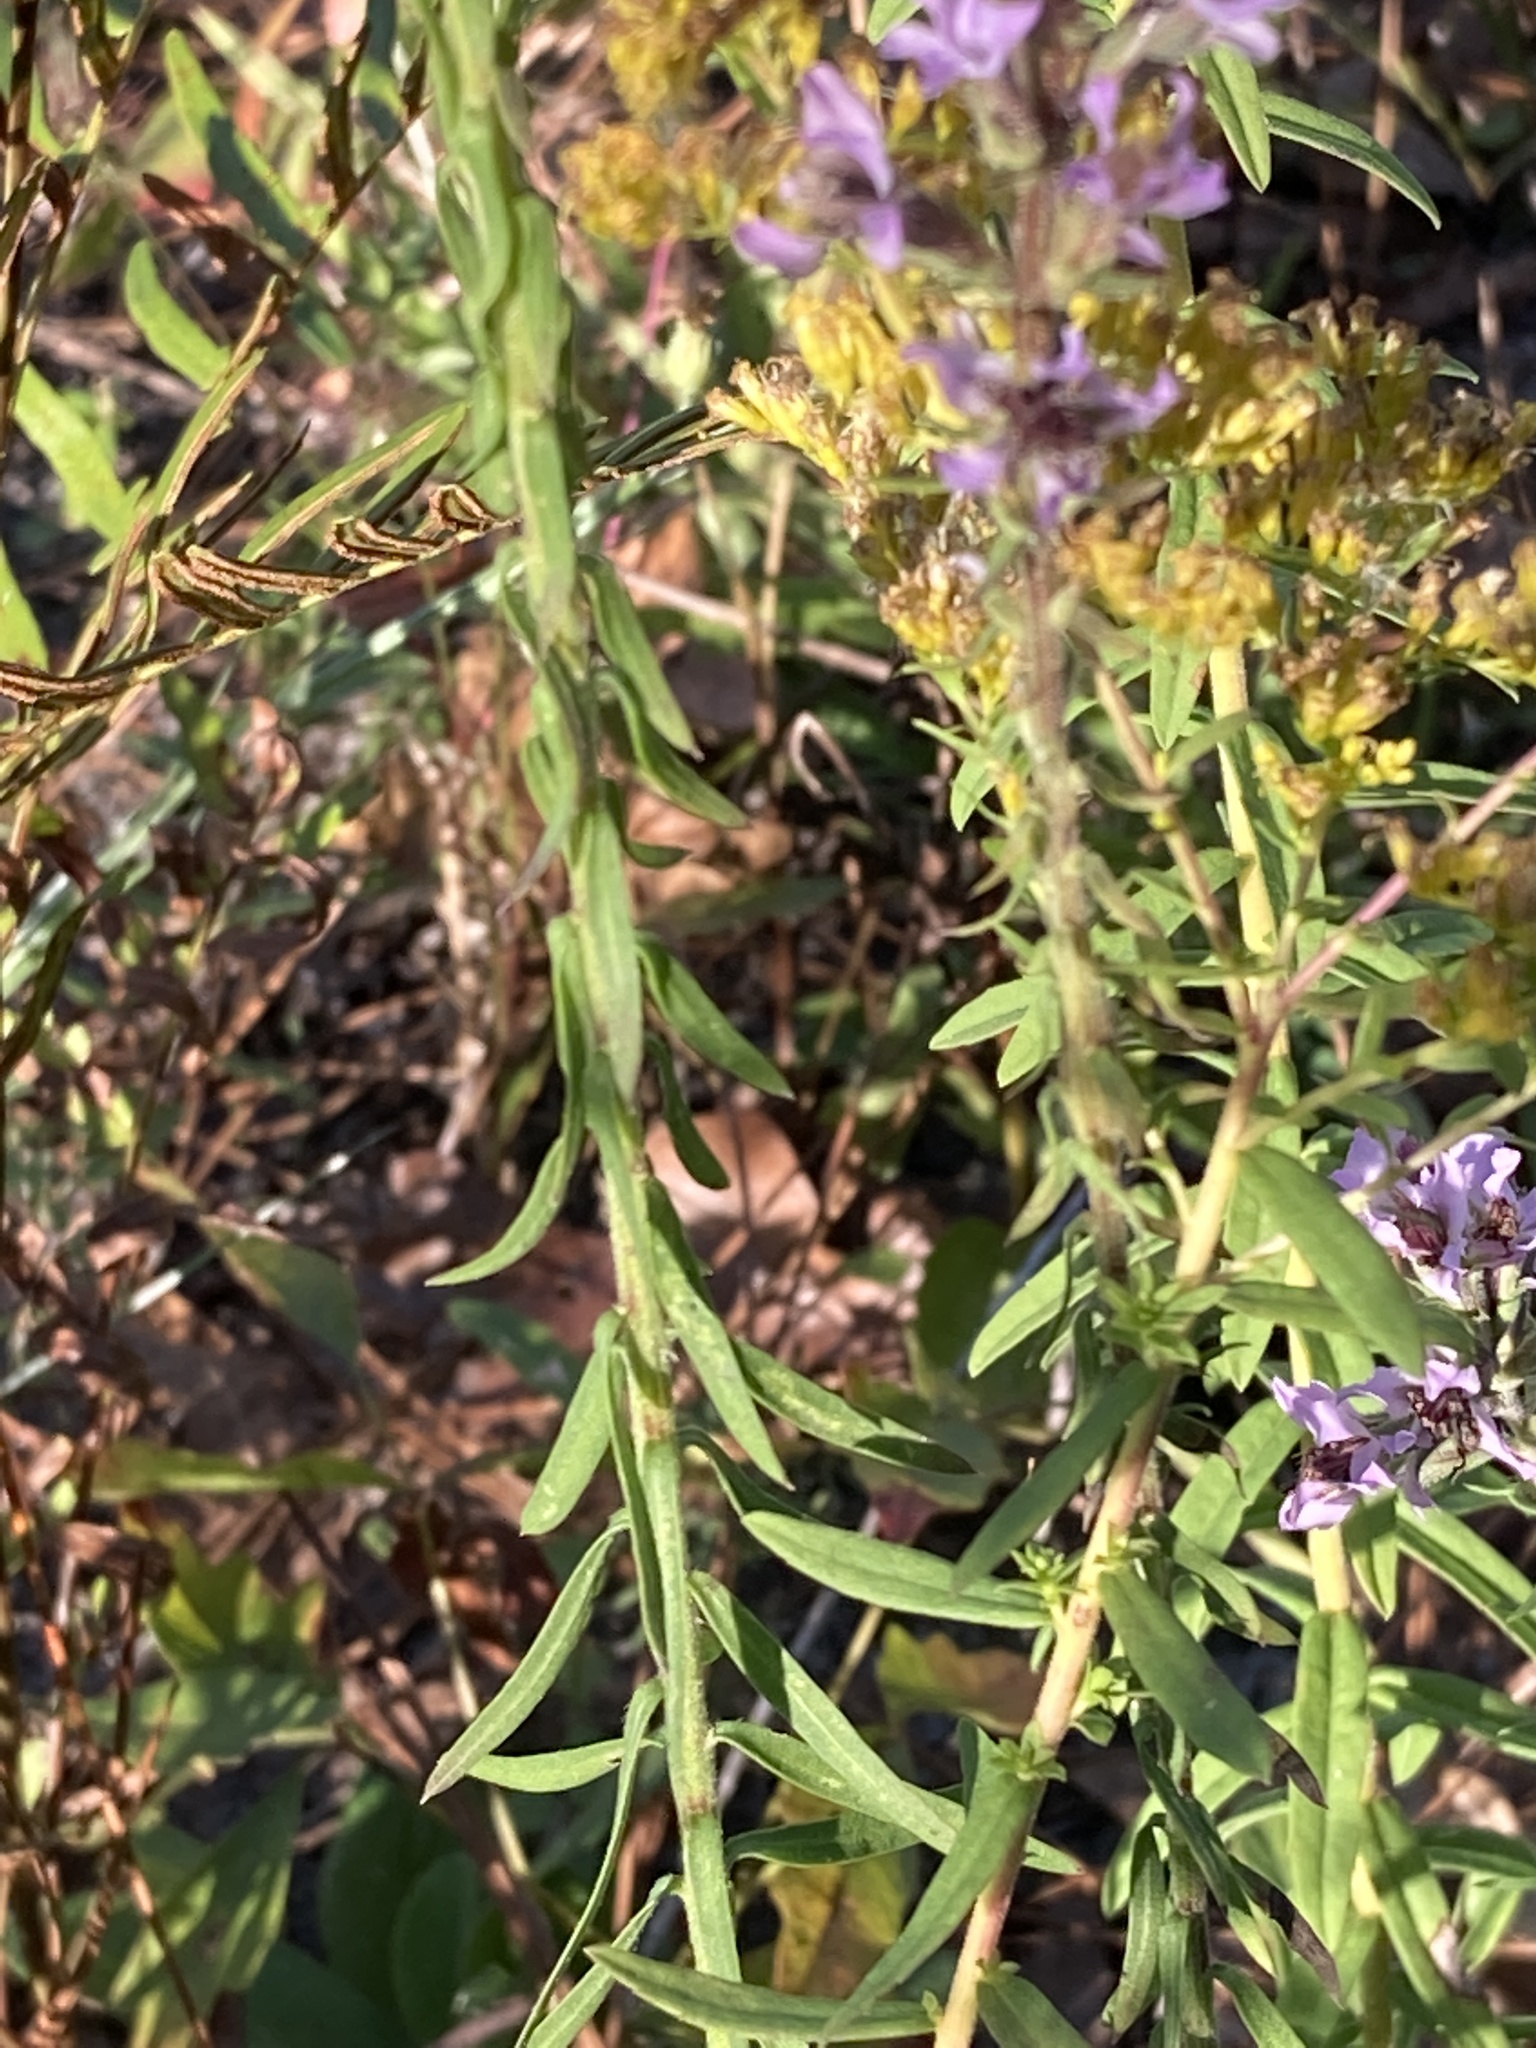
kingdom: Plantae
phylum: Tracheophyta
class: Magnoliopsida
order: Asterales
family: Asteraceae
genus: Liatris
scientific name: Liatris elegans
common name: Pinkscale gayfeather
